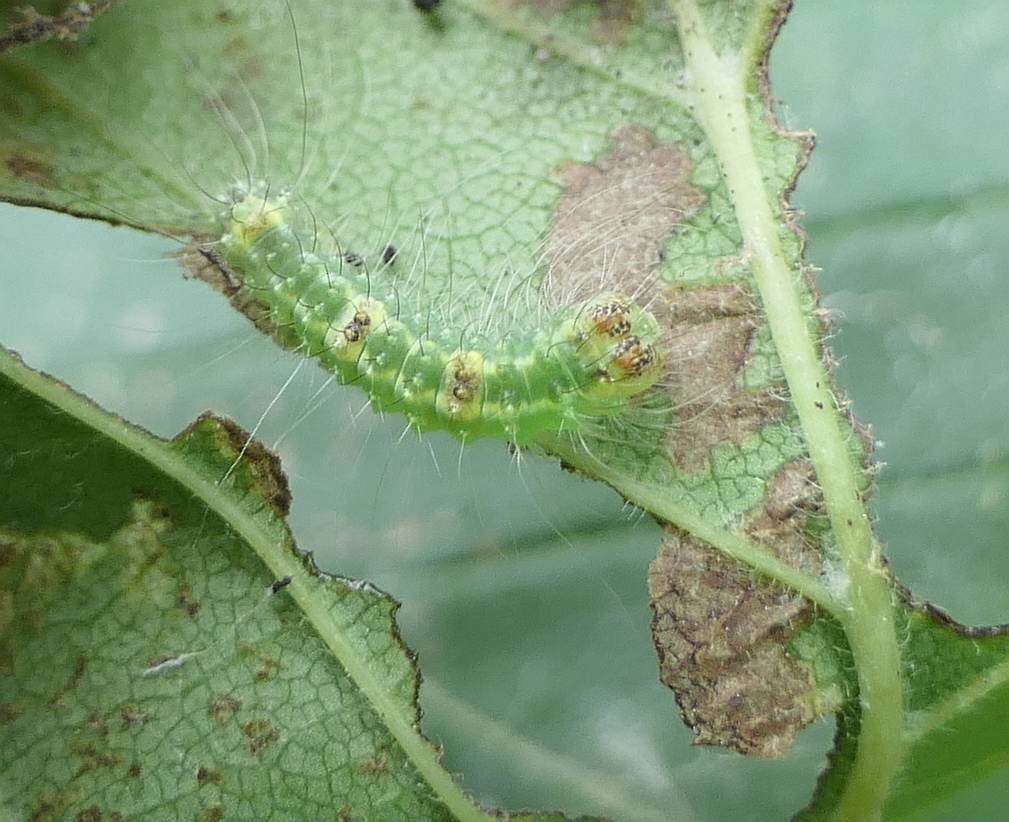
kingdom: Animalia
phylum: Arthropoda
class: Insecta
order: Lepidoptera
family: Noctuidae
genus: Acronicta
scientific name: Acronicta morula
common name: Ochre dagger
